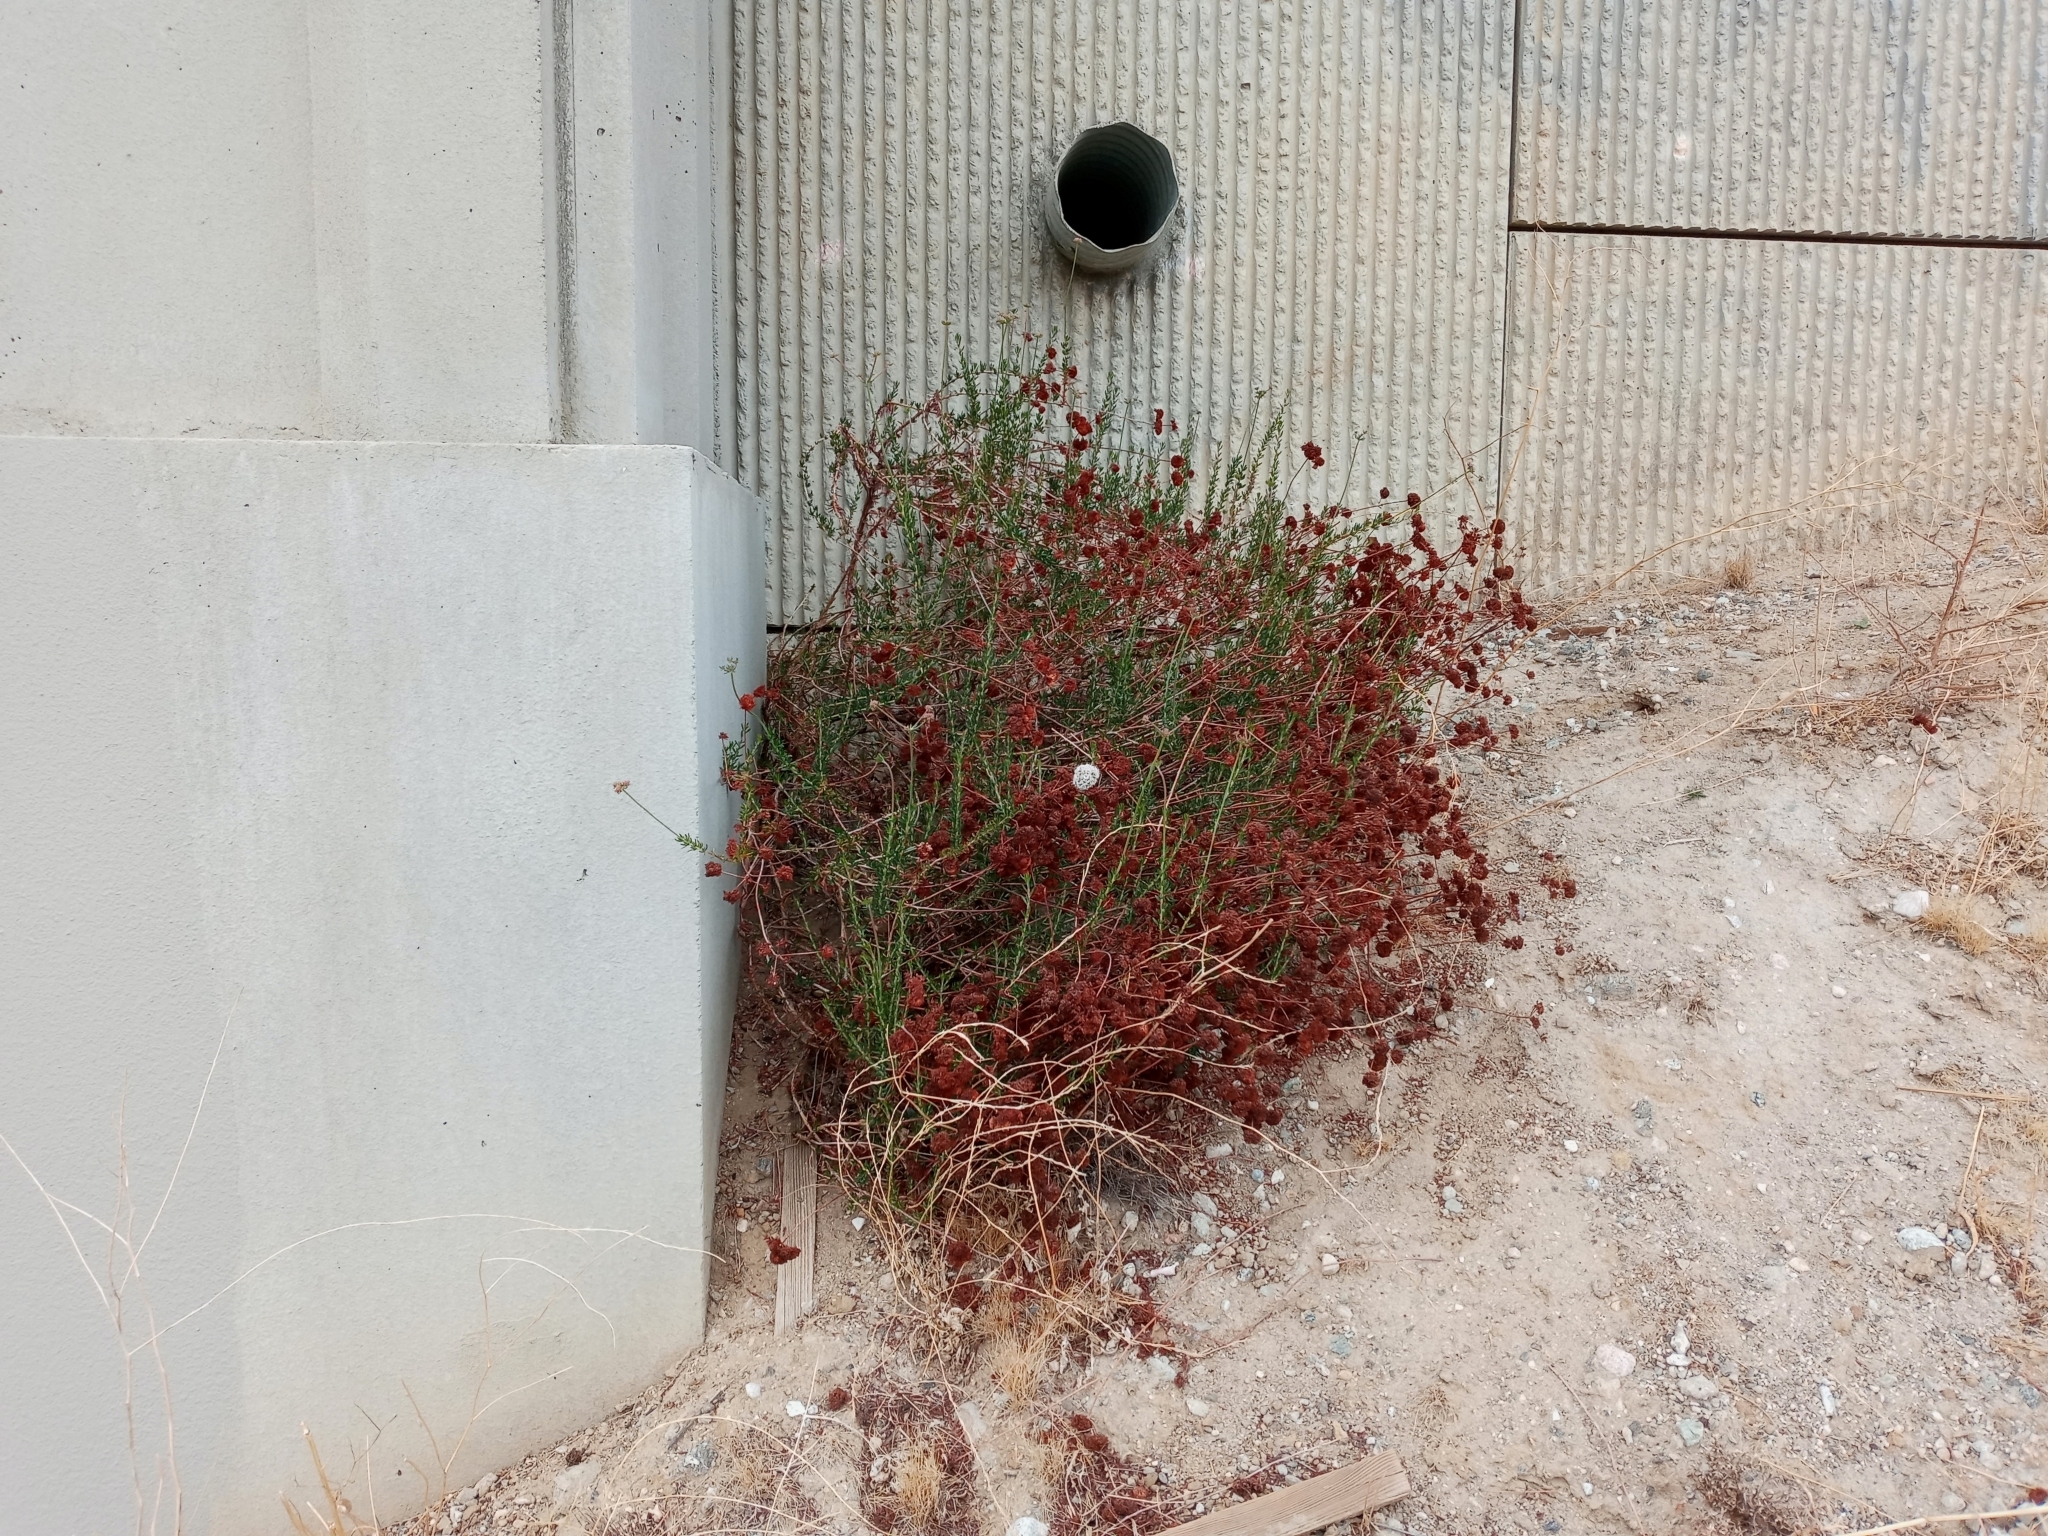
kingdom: Plantae
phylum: Tracheophyta
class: Magnoliopsida
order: Caryophyllales
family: Polygonaceae
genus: Eriogonum
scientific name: Eriogonum fasciculatum
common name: California wild buckwheat
